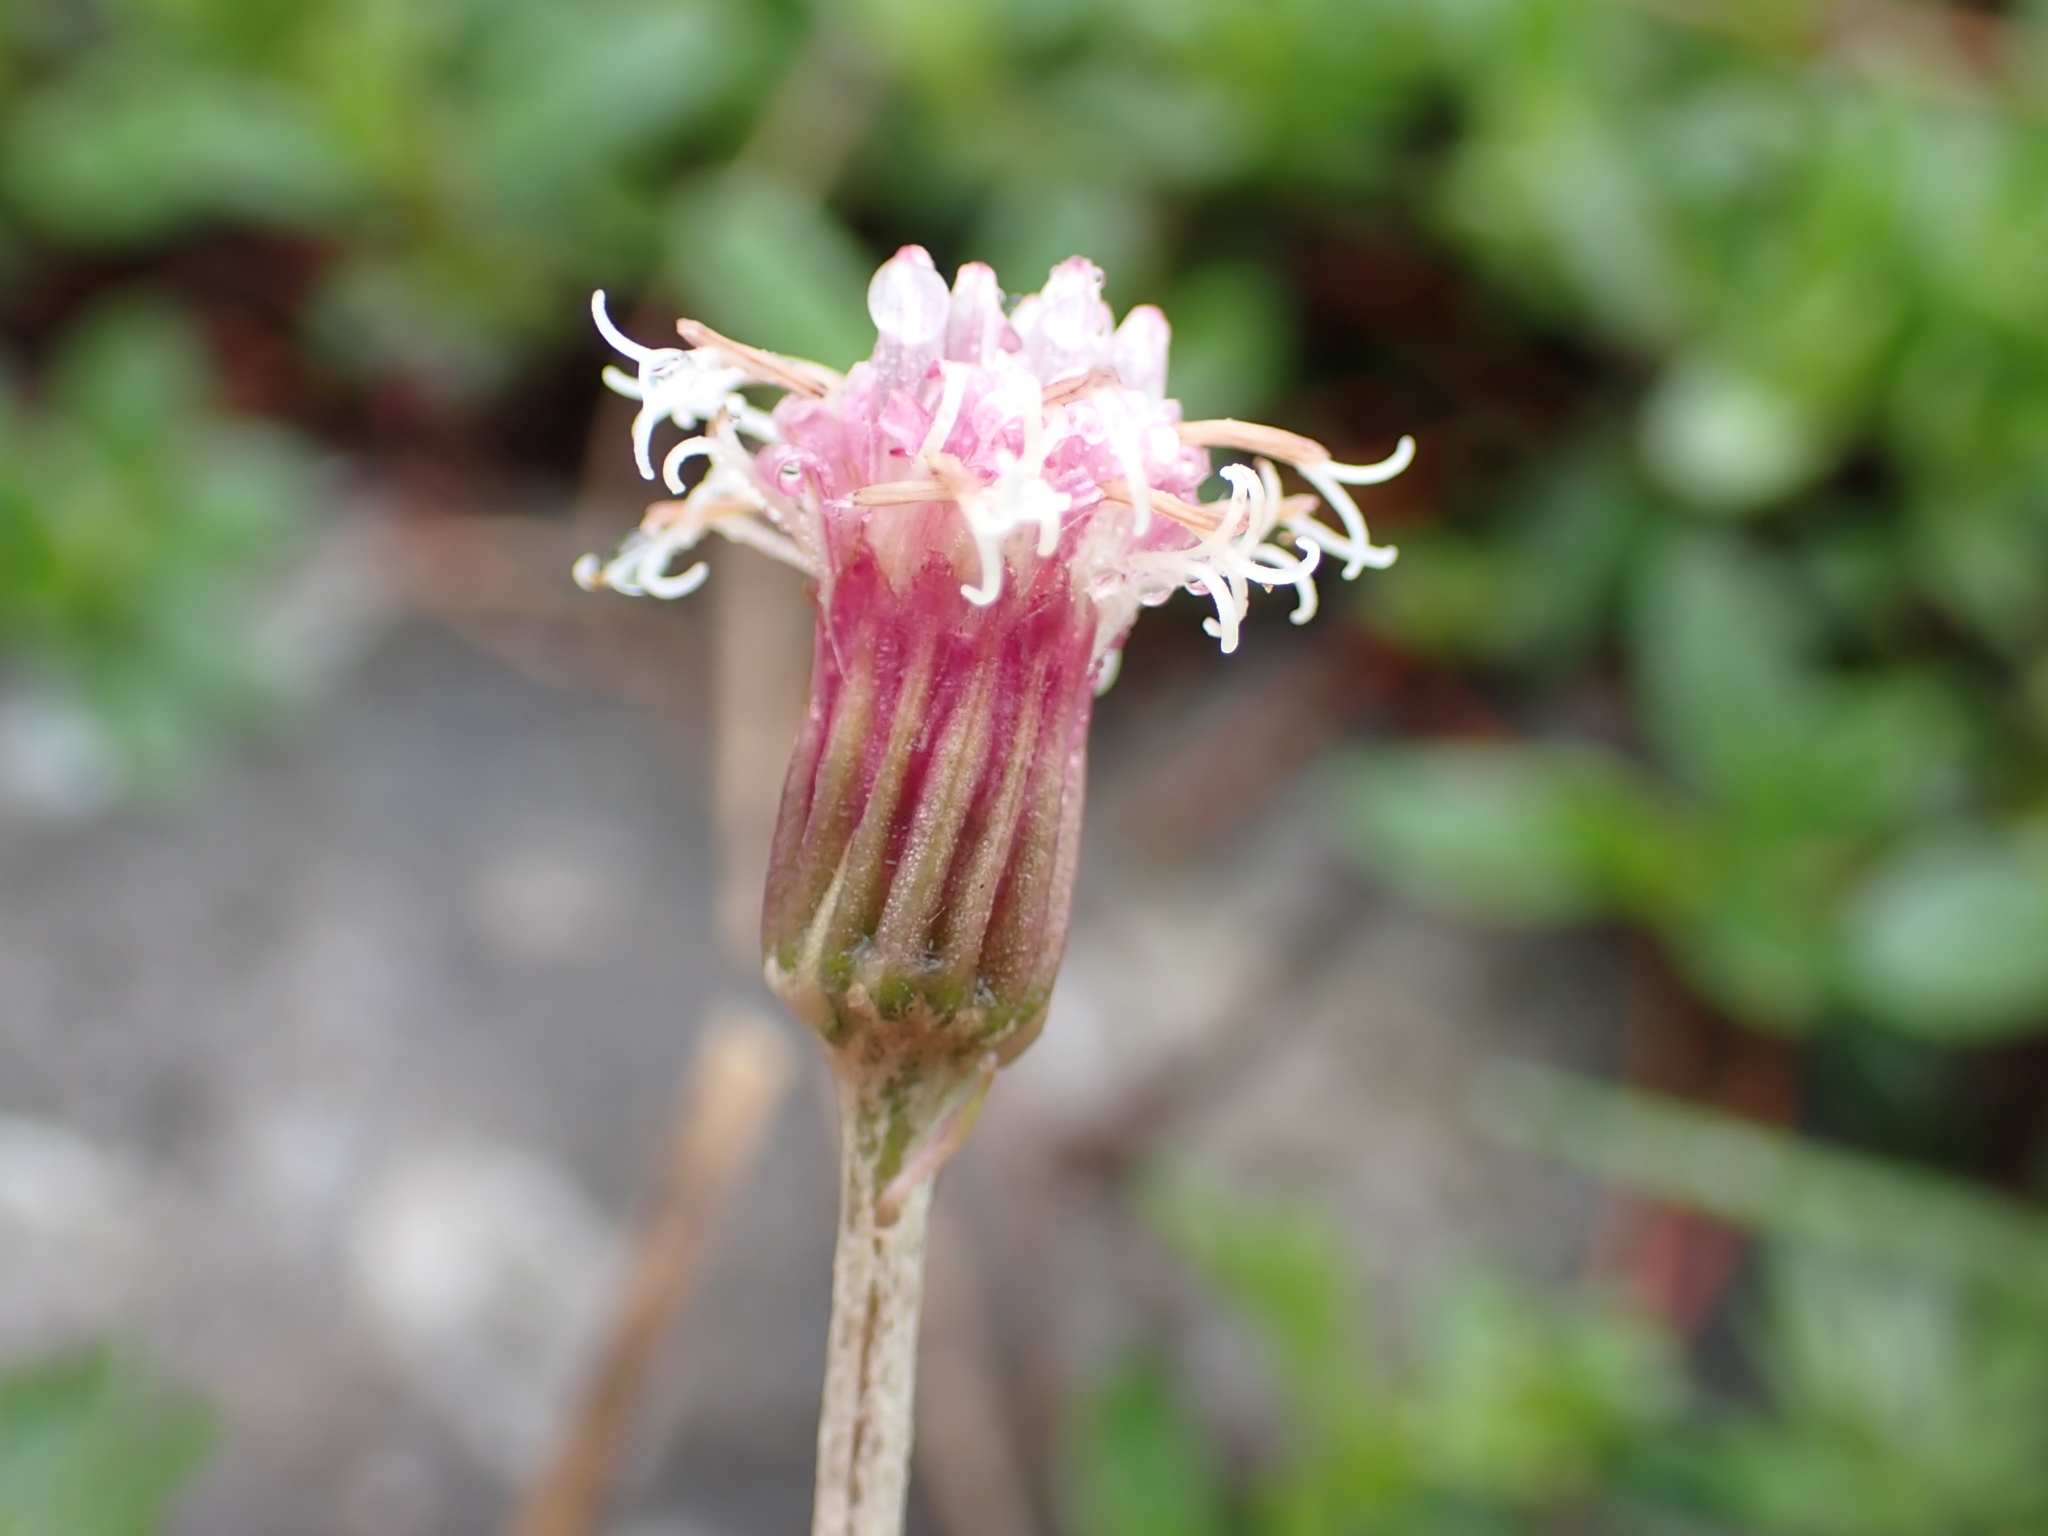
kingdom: Plantae
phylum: Tracheophyta
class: Magnoliopsida
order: Asterales
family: Asteraceae
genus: Homogyne
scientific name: Homogyne alpina
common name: Purple colt's-foot
